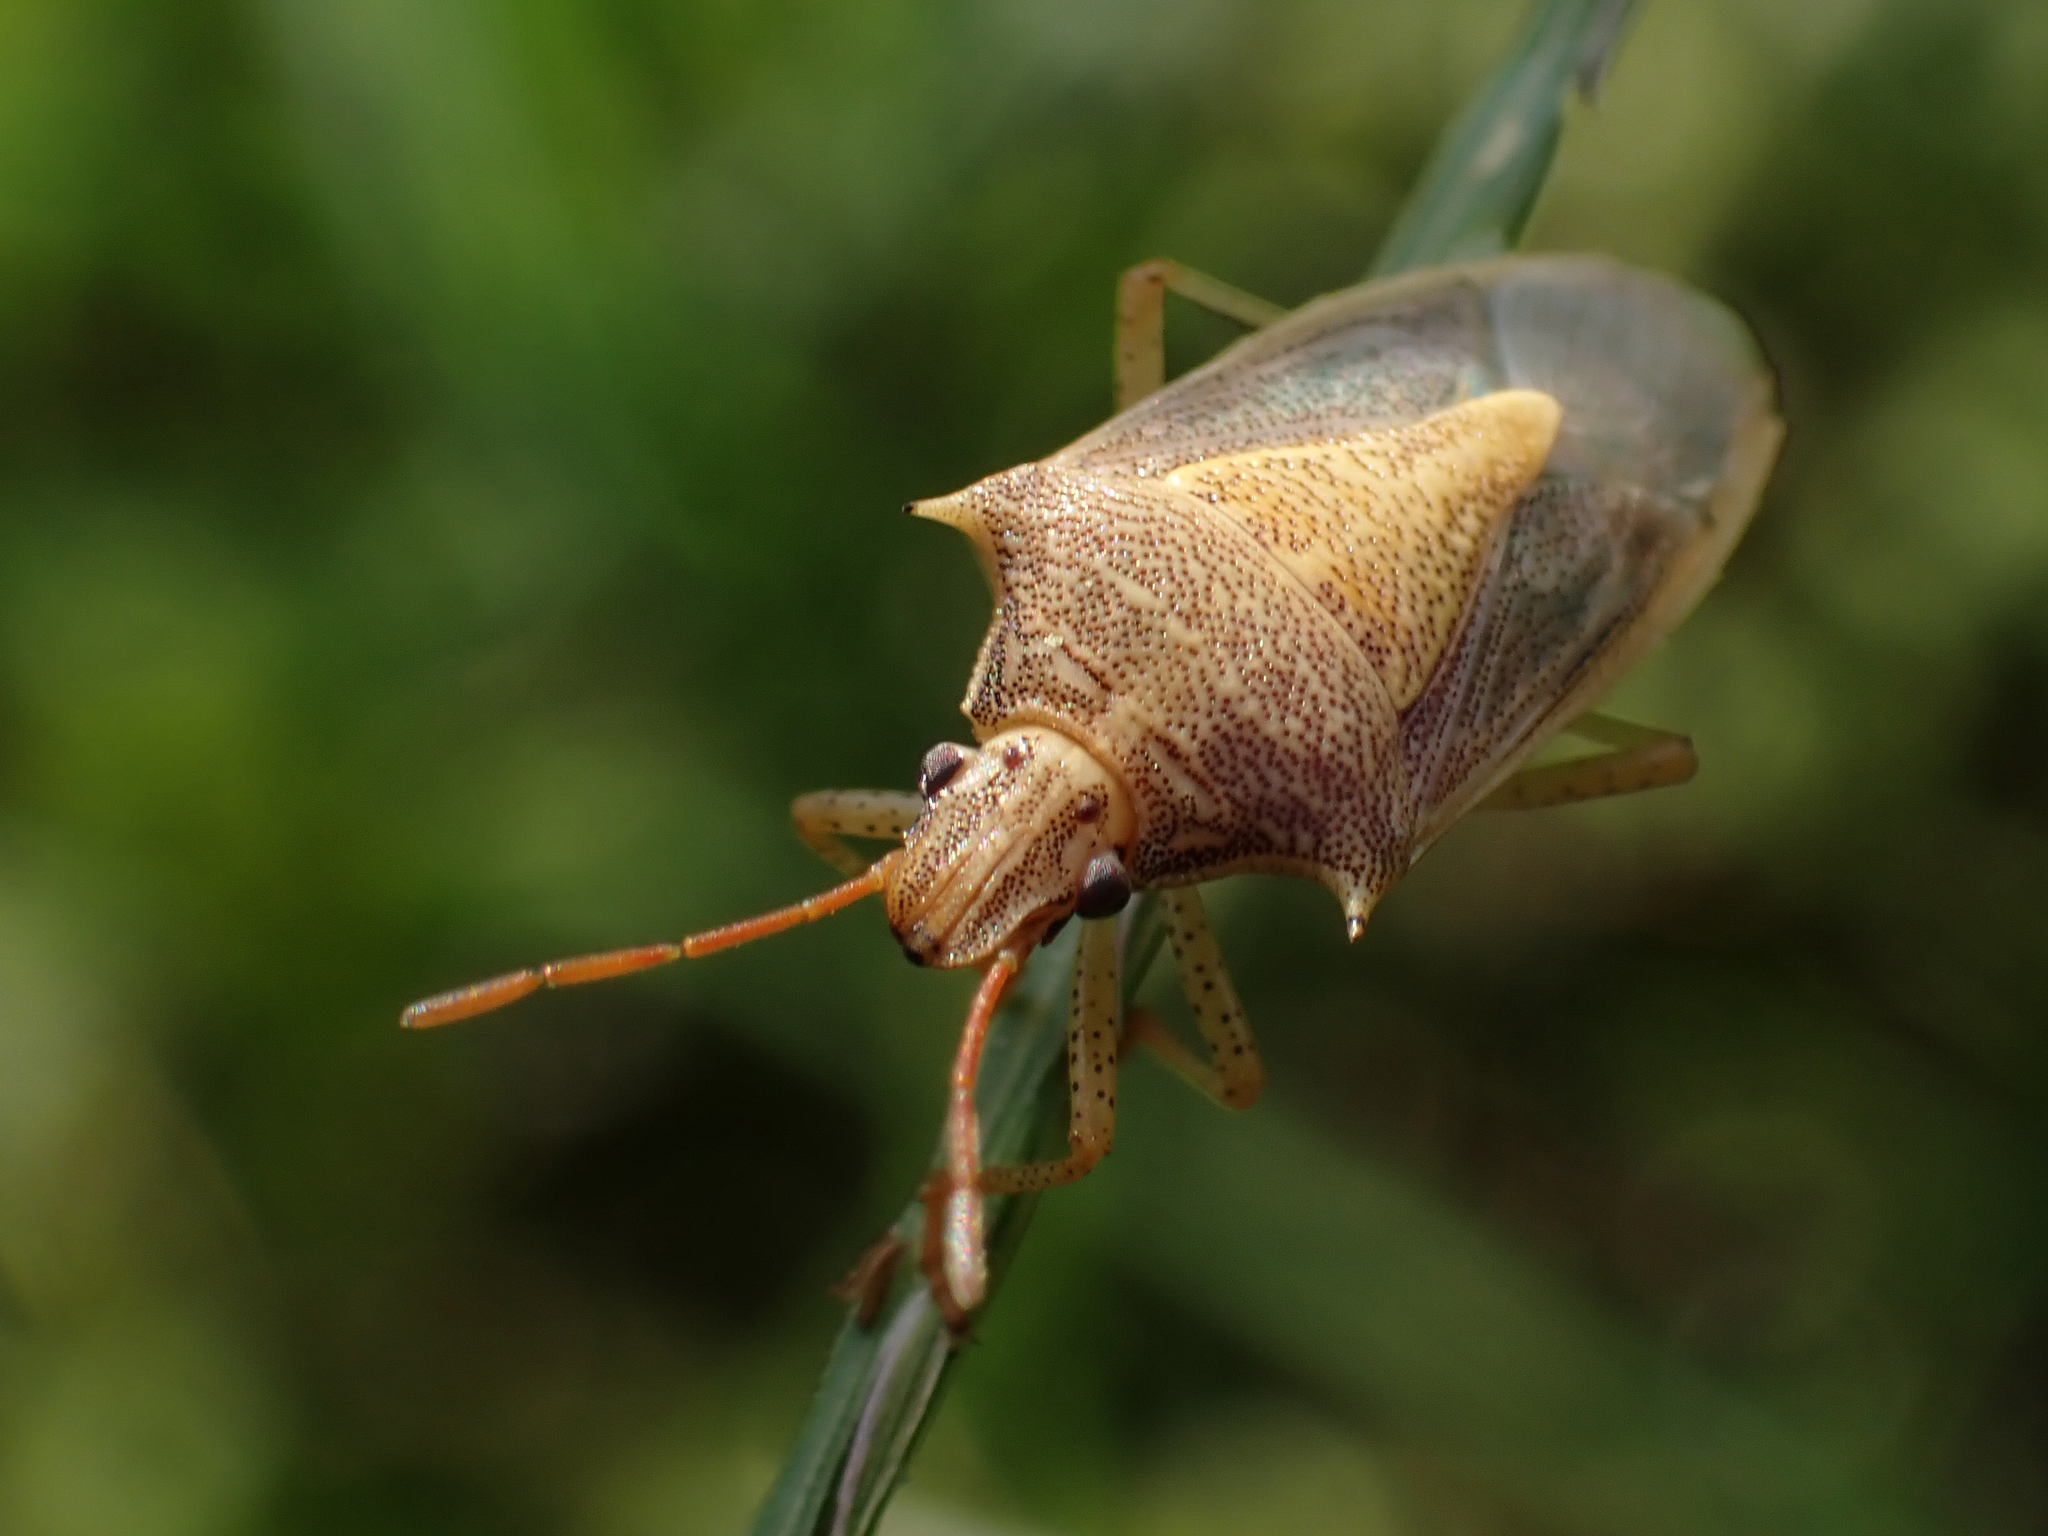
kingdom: Animalia
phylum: Arthropoda
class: Insecta
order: Hemiptera
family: Pentatomidae
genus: Oebalus
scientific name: Oebalus pugnax
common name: Rice stink bug
